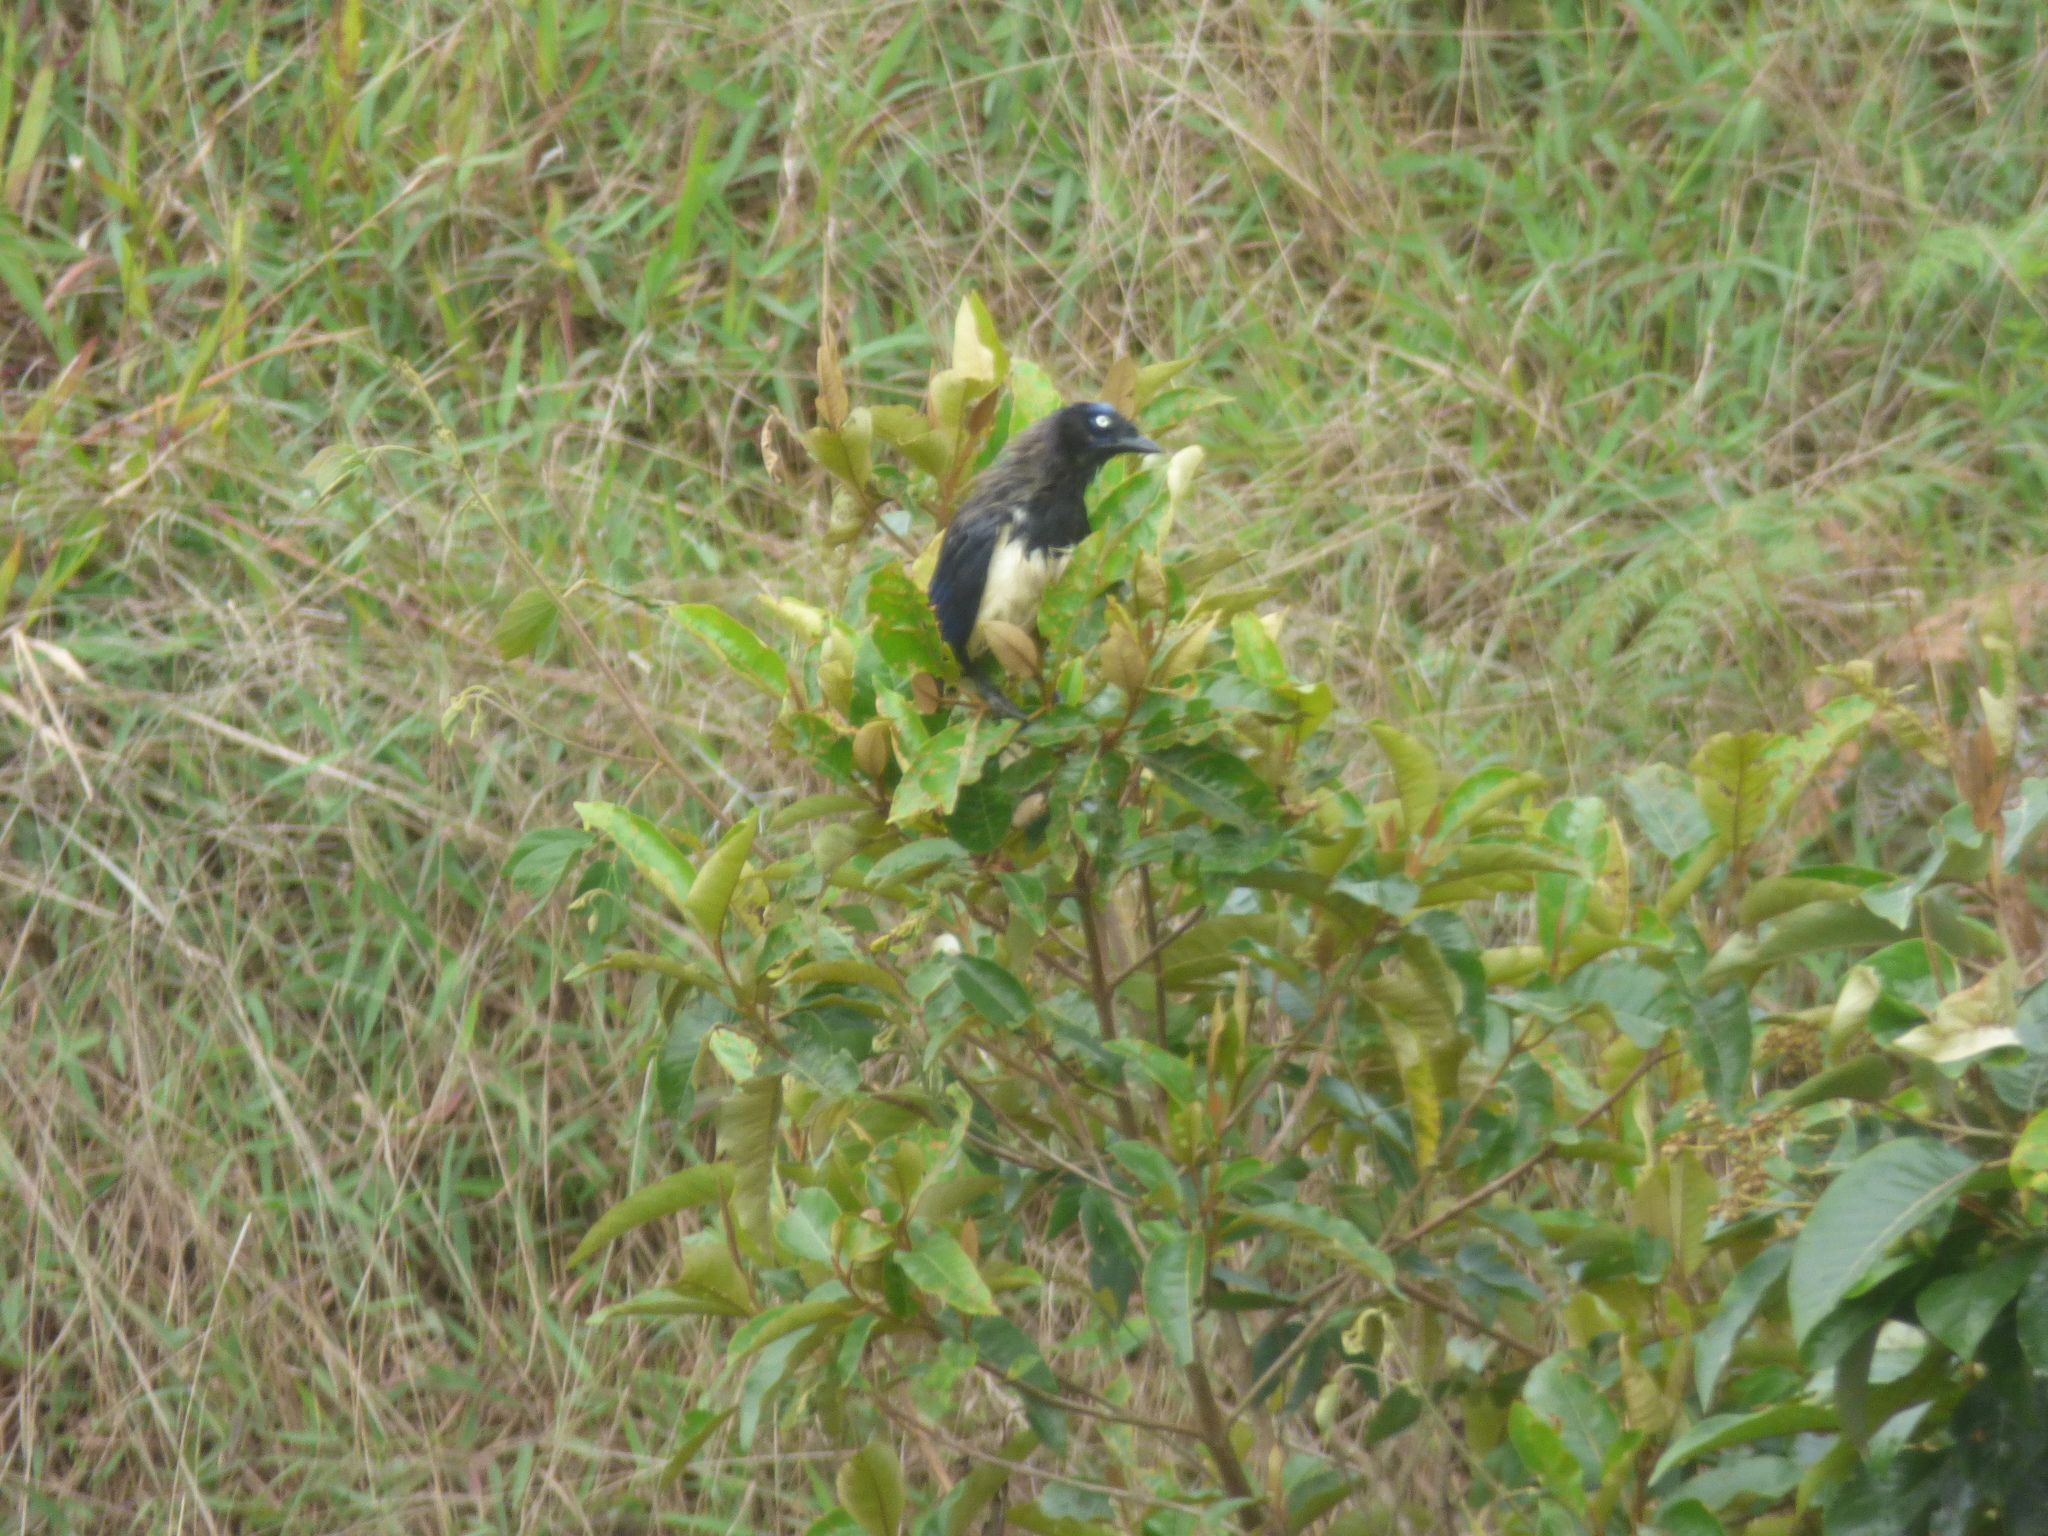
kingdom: Animalia
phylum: Chordata
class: Aves
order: Passeriformes
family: Corvidae
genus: Cyanocorax
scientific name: Cyanocorax affinis
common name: Black-chested jay
